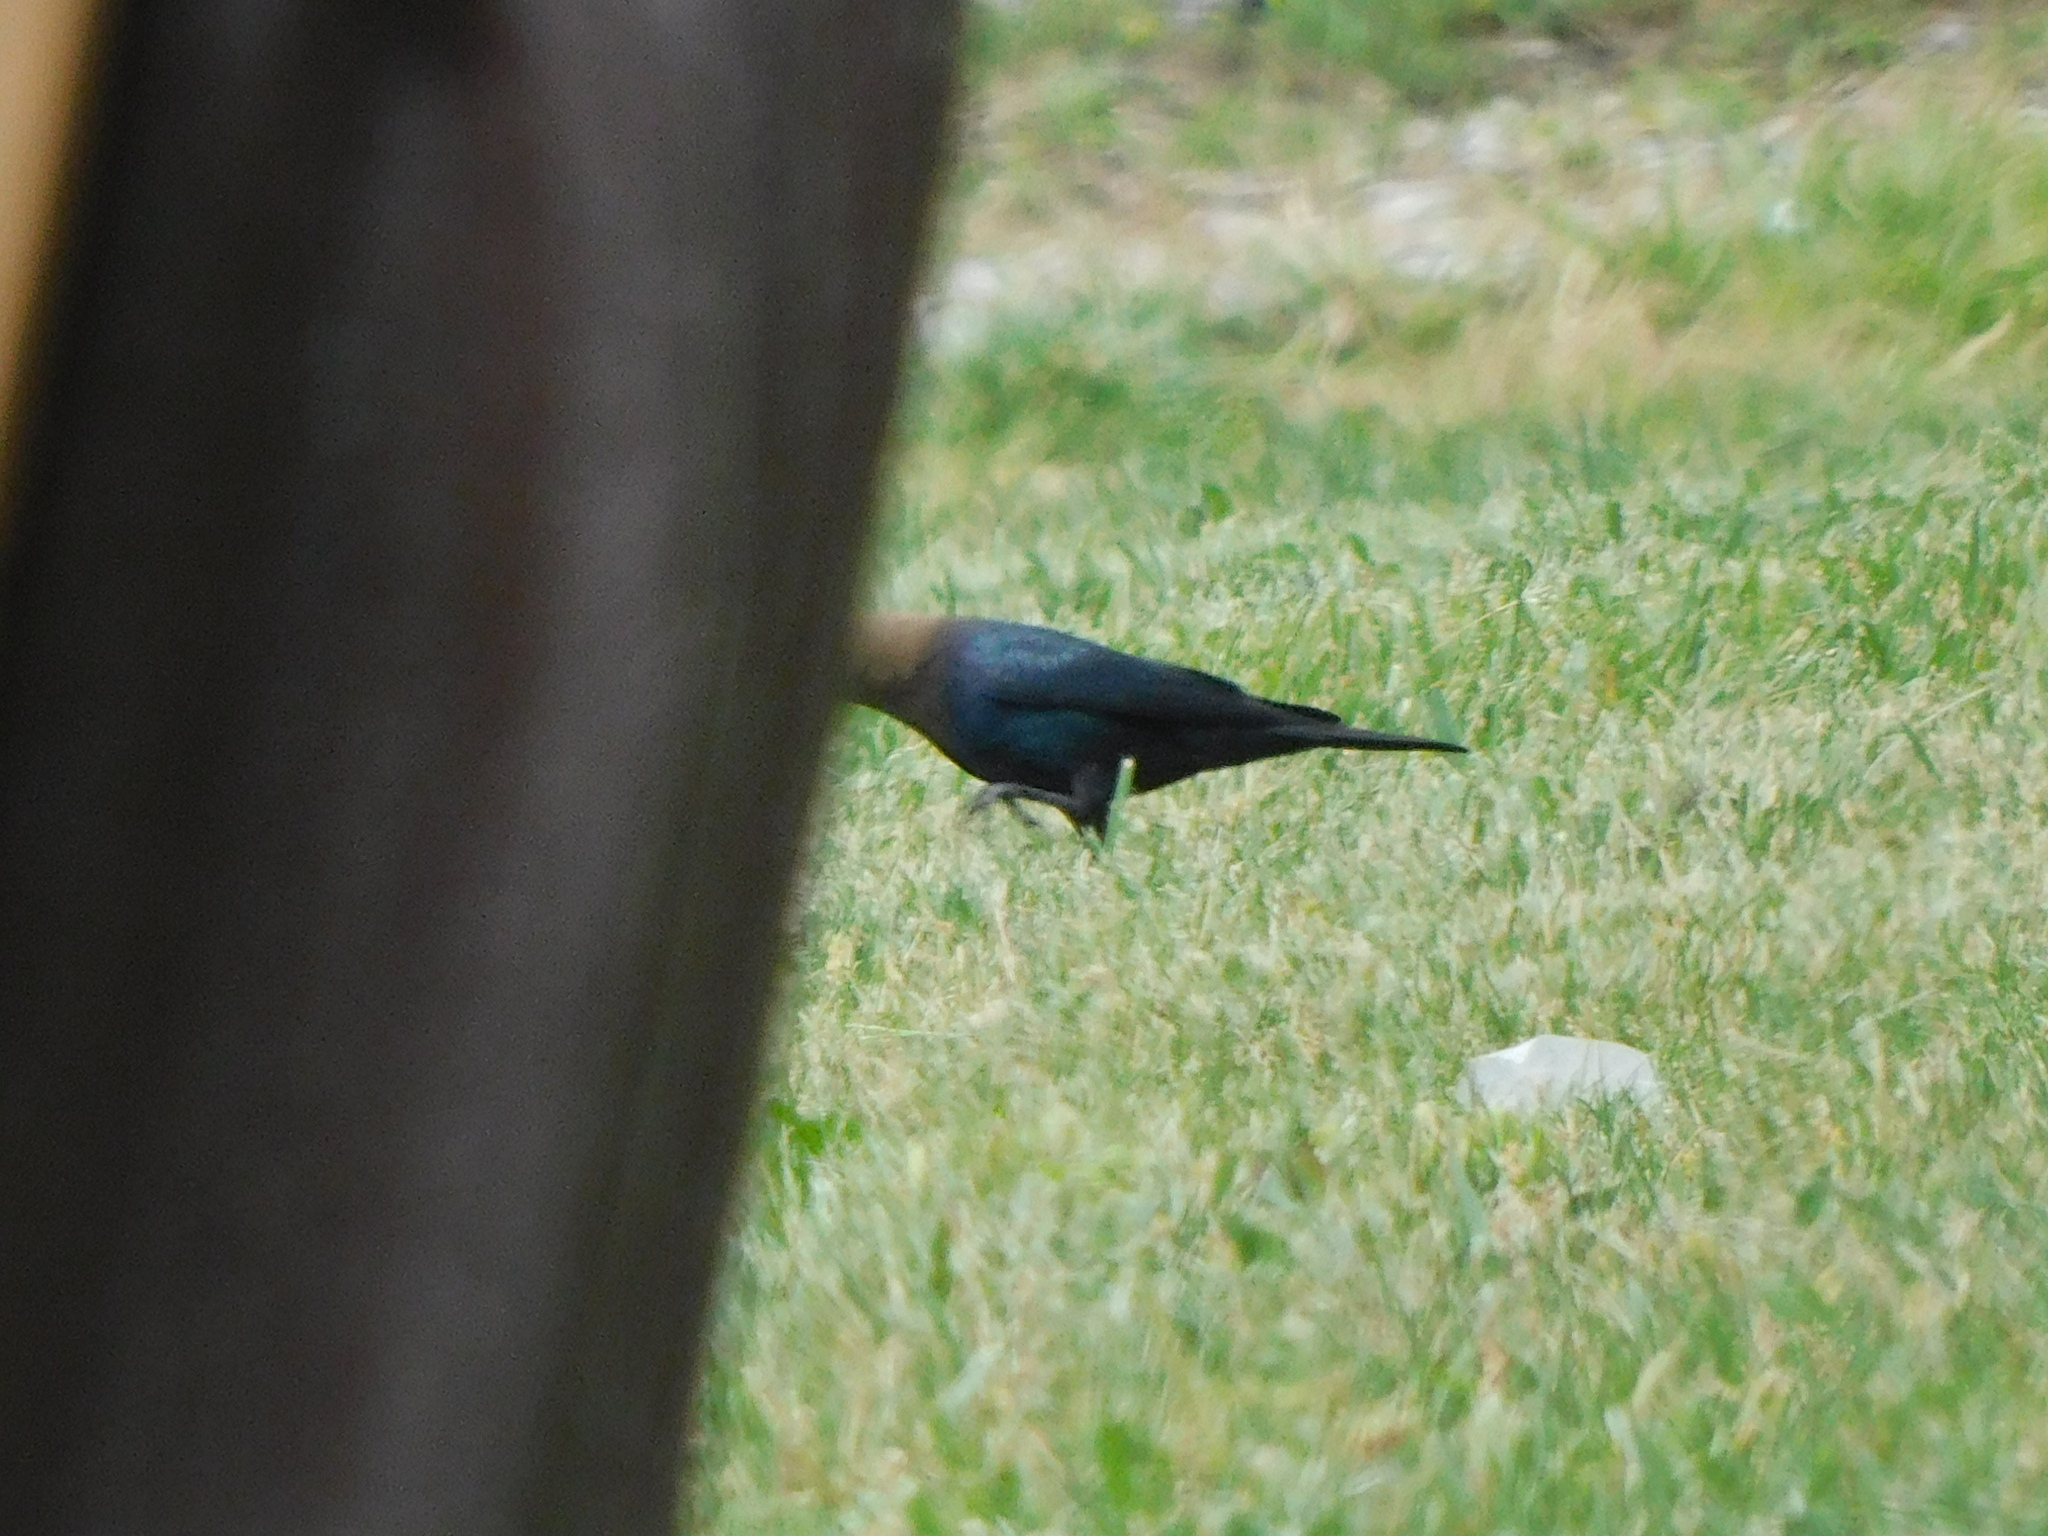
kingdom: Animalia
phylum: Chordata
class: Aves
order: Passeriformes
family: Icteridae
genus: Molothrus
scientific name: Molothrus ater
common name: Brown-headed cowbird
